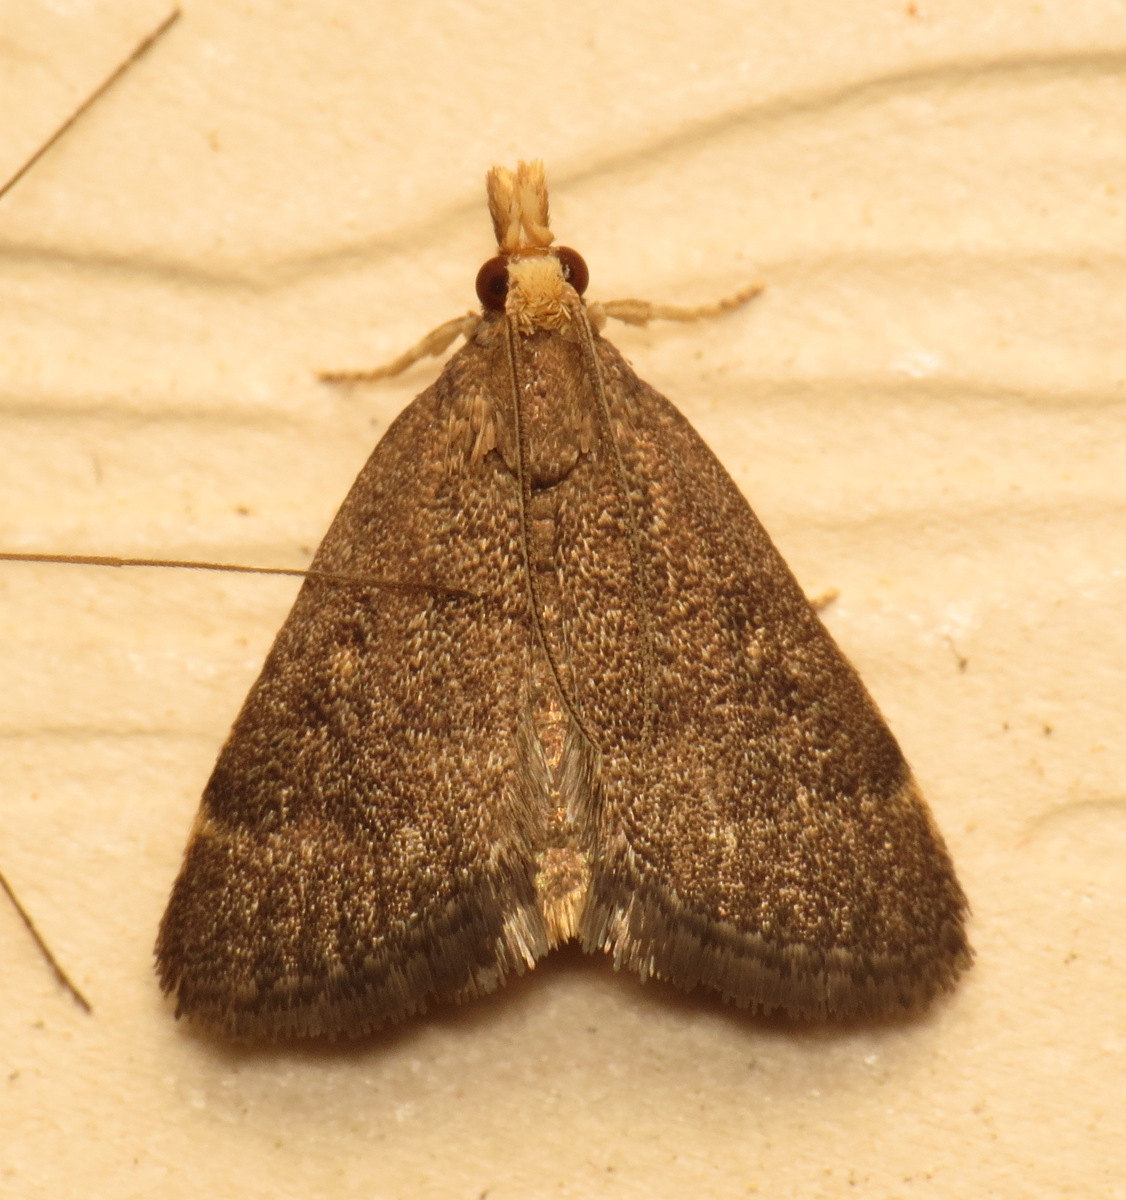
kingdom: Animalia
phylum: Arthropoda
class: Insecta
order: Lepidoptera
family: Crambidae
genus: Pyrausta
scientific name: Pyrausta merrickalis
